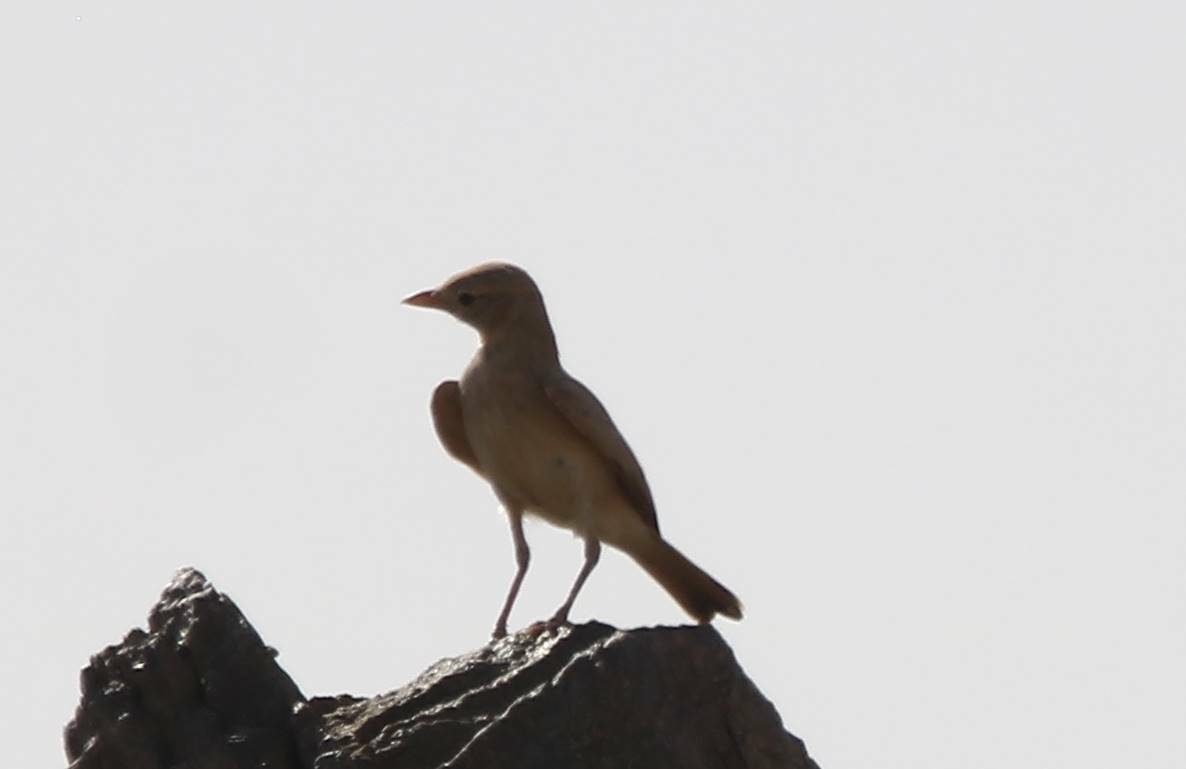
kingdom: Animalia
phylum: Chordata
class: Aves
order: Passeriformes
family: Alaudidae
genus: Ammomanes
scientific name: Ammomanes deserti
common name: Desert lark
